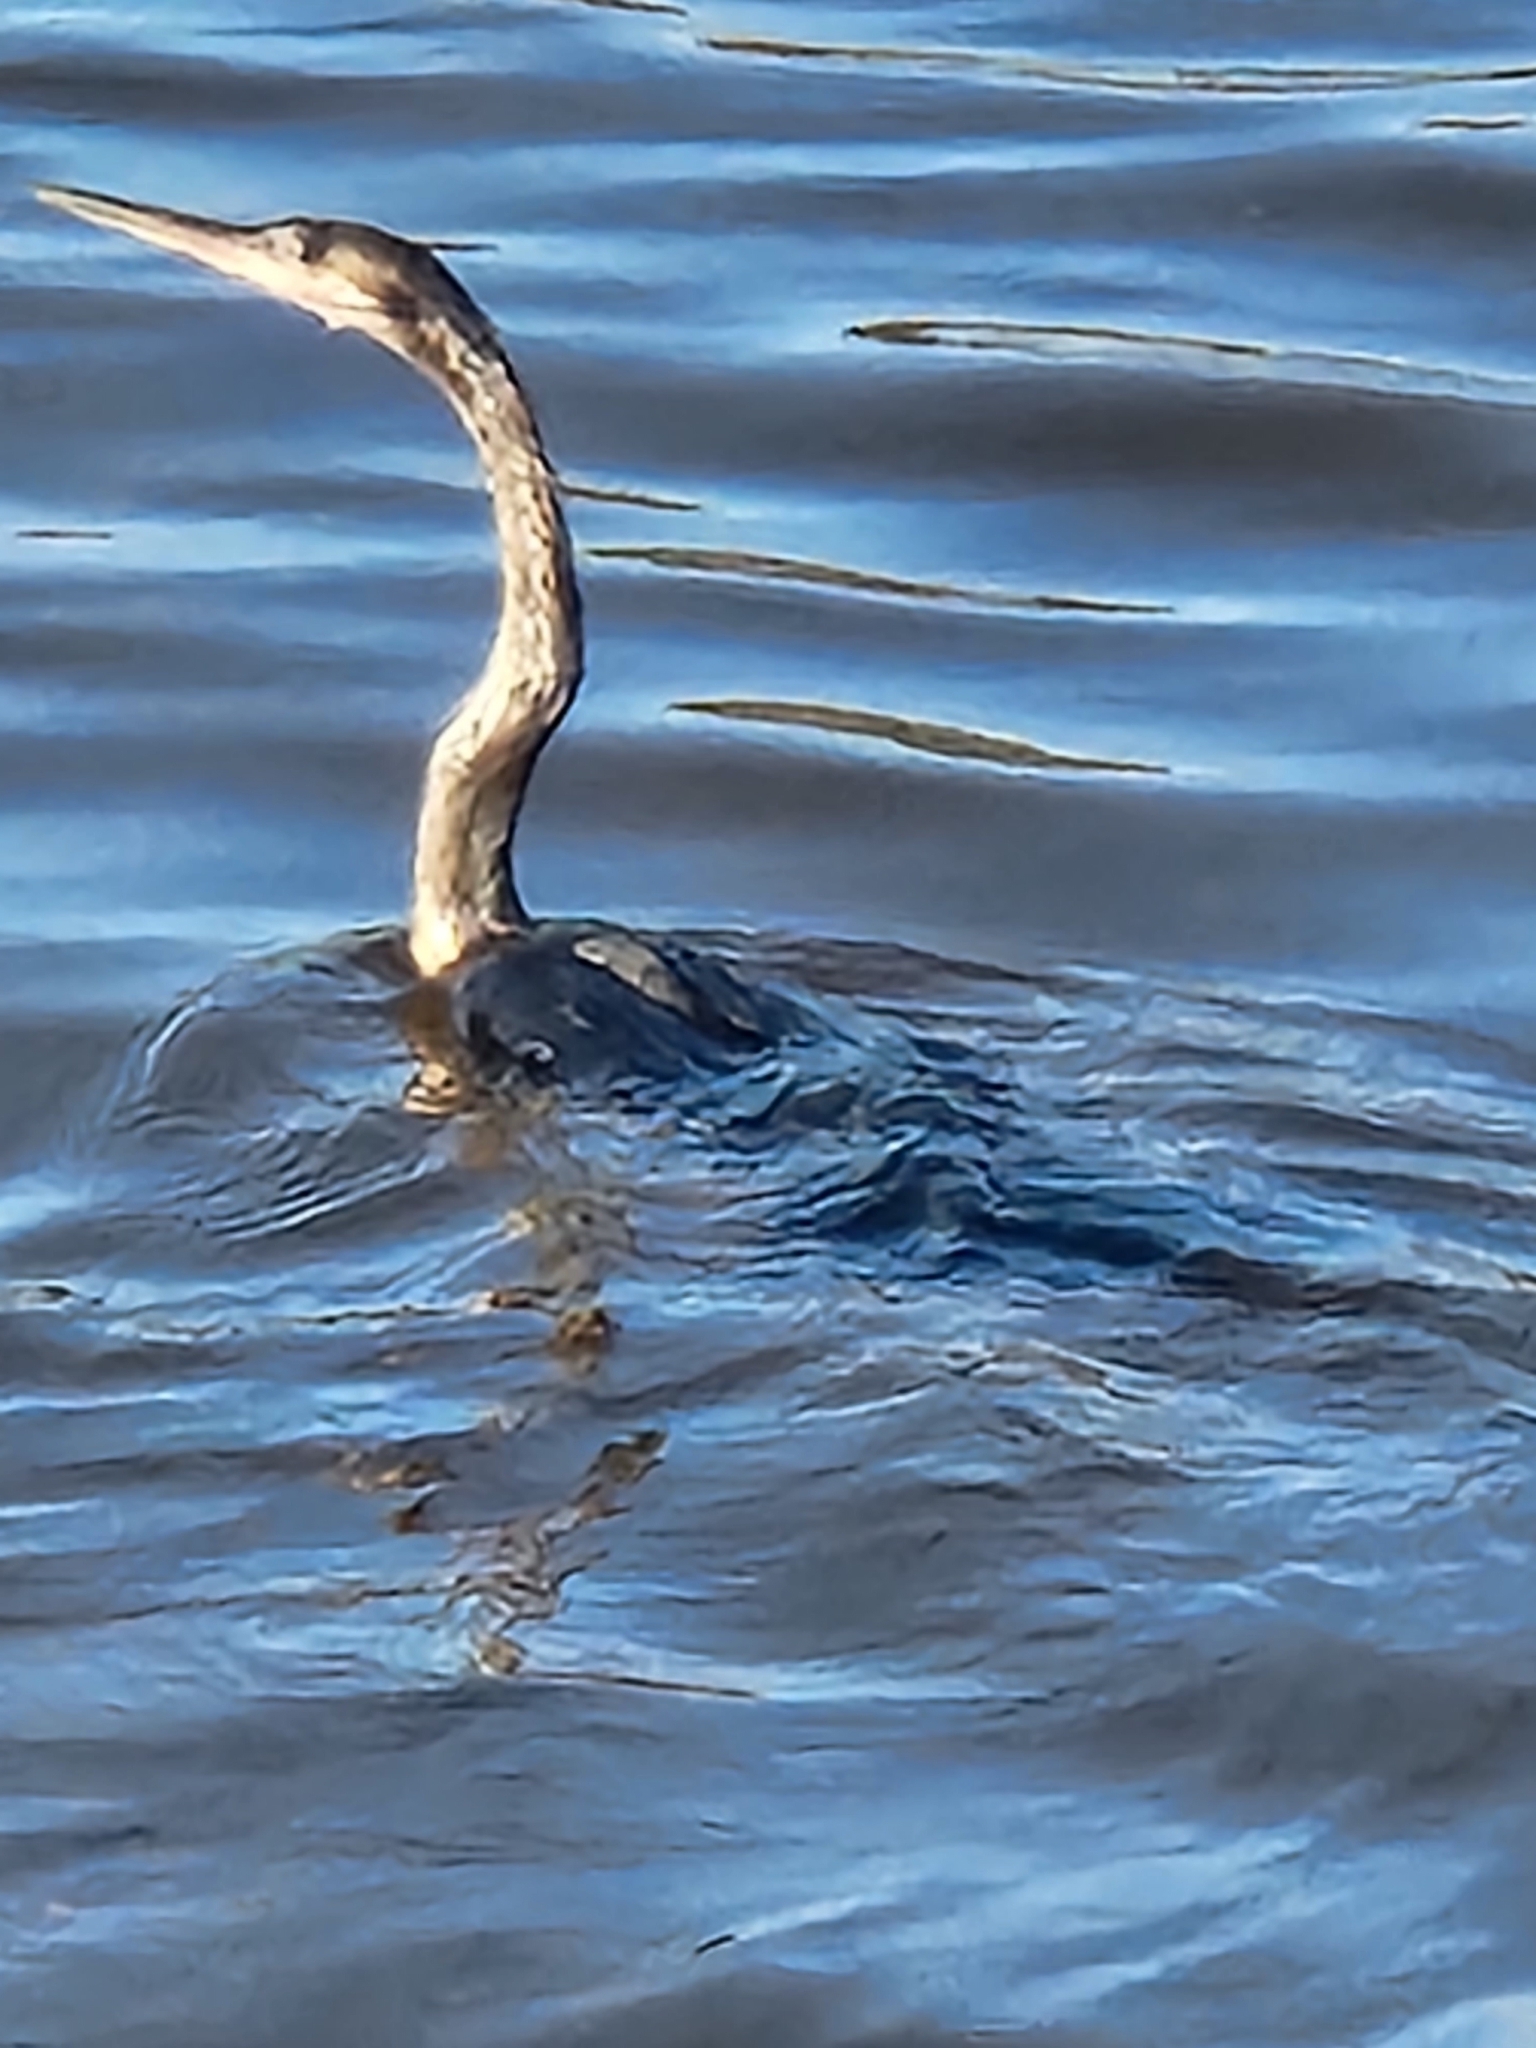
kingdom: Animalia
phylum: Chordata
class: Aves
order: Suliformes
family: Anhingidae
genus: Anhinga
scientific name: Anhinga anhinga
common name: Anhinga
